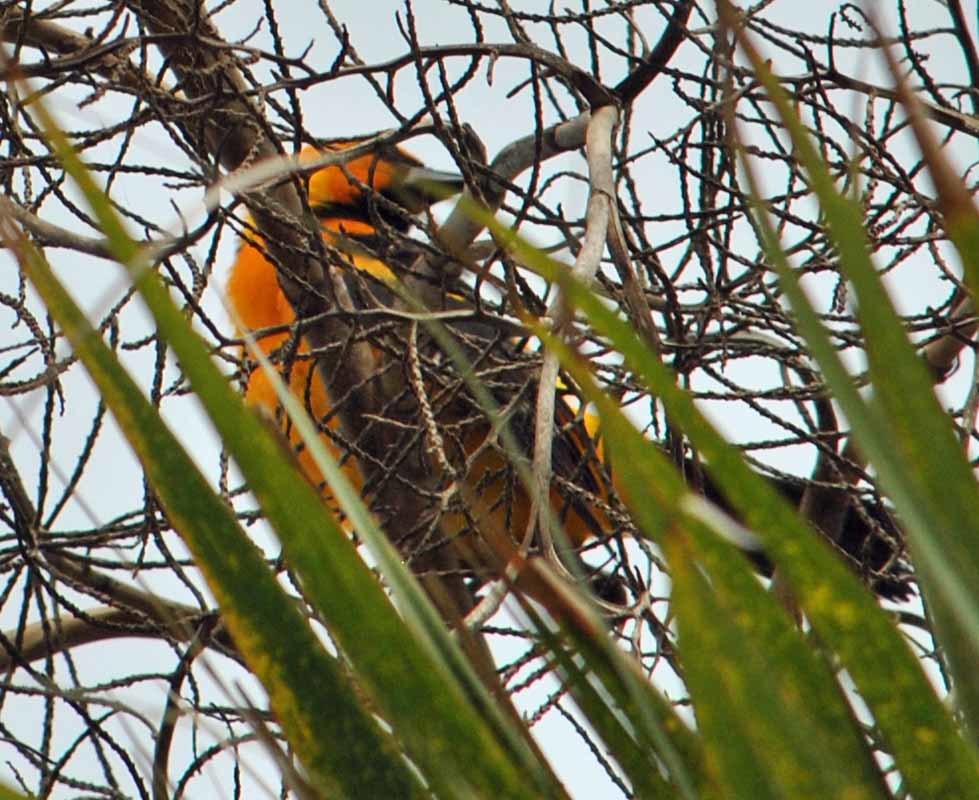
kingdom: Animalia
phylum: Chordata
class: Aves
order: Passeriformes
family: Icteridae
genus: Icterus
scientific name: Icterus gularis
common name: Altamira oriole
